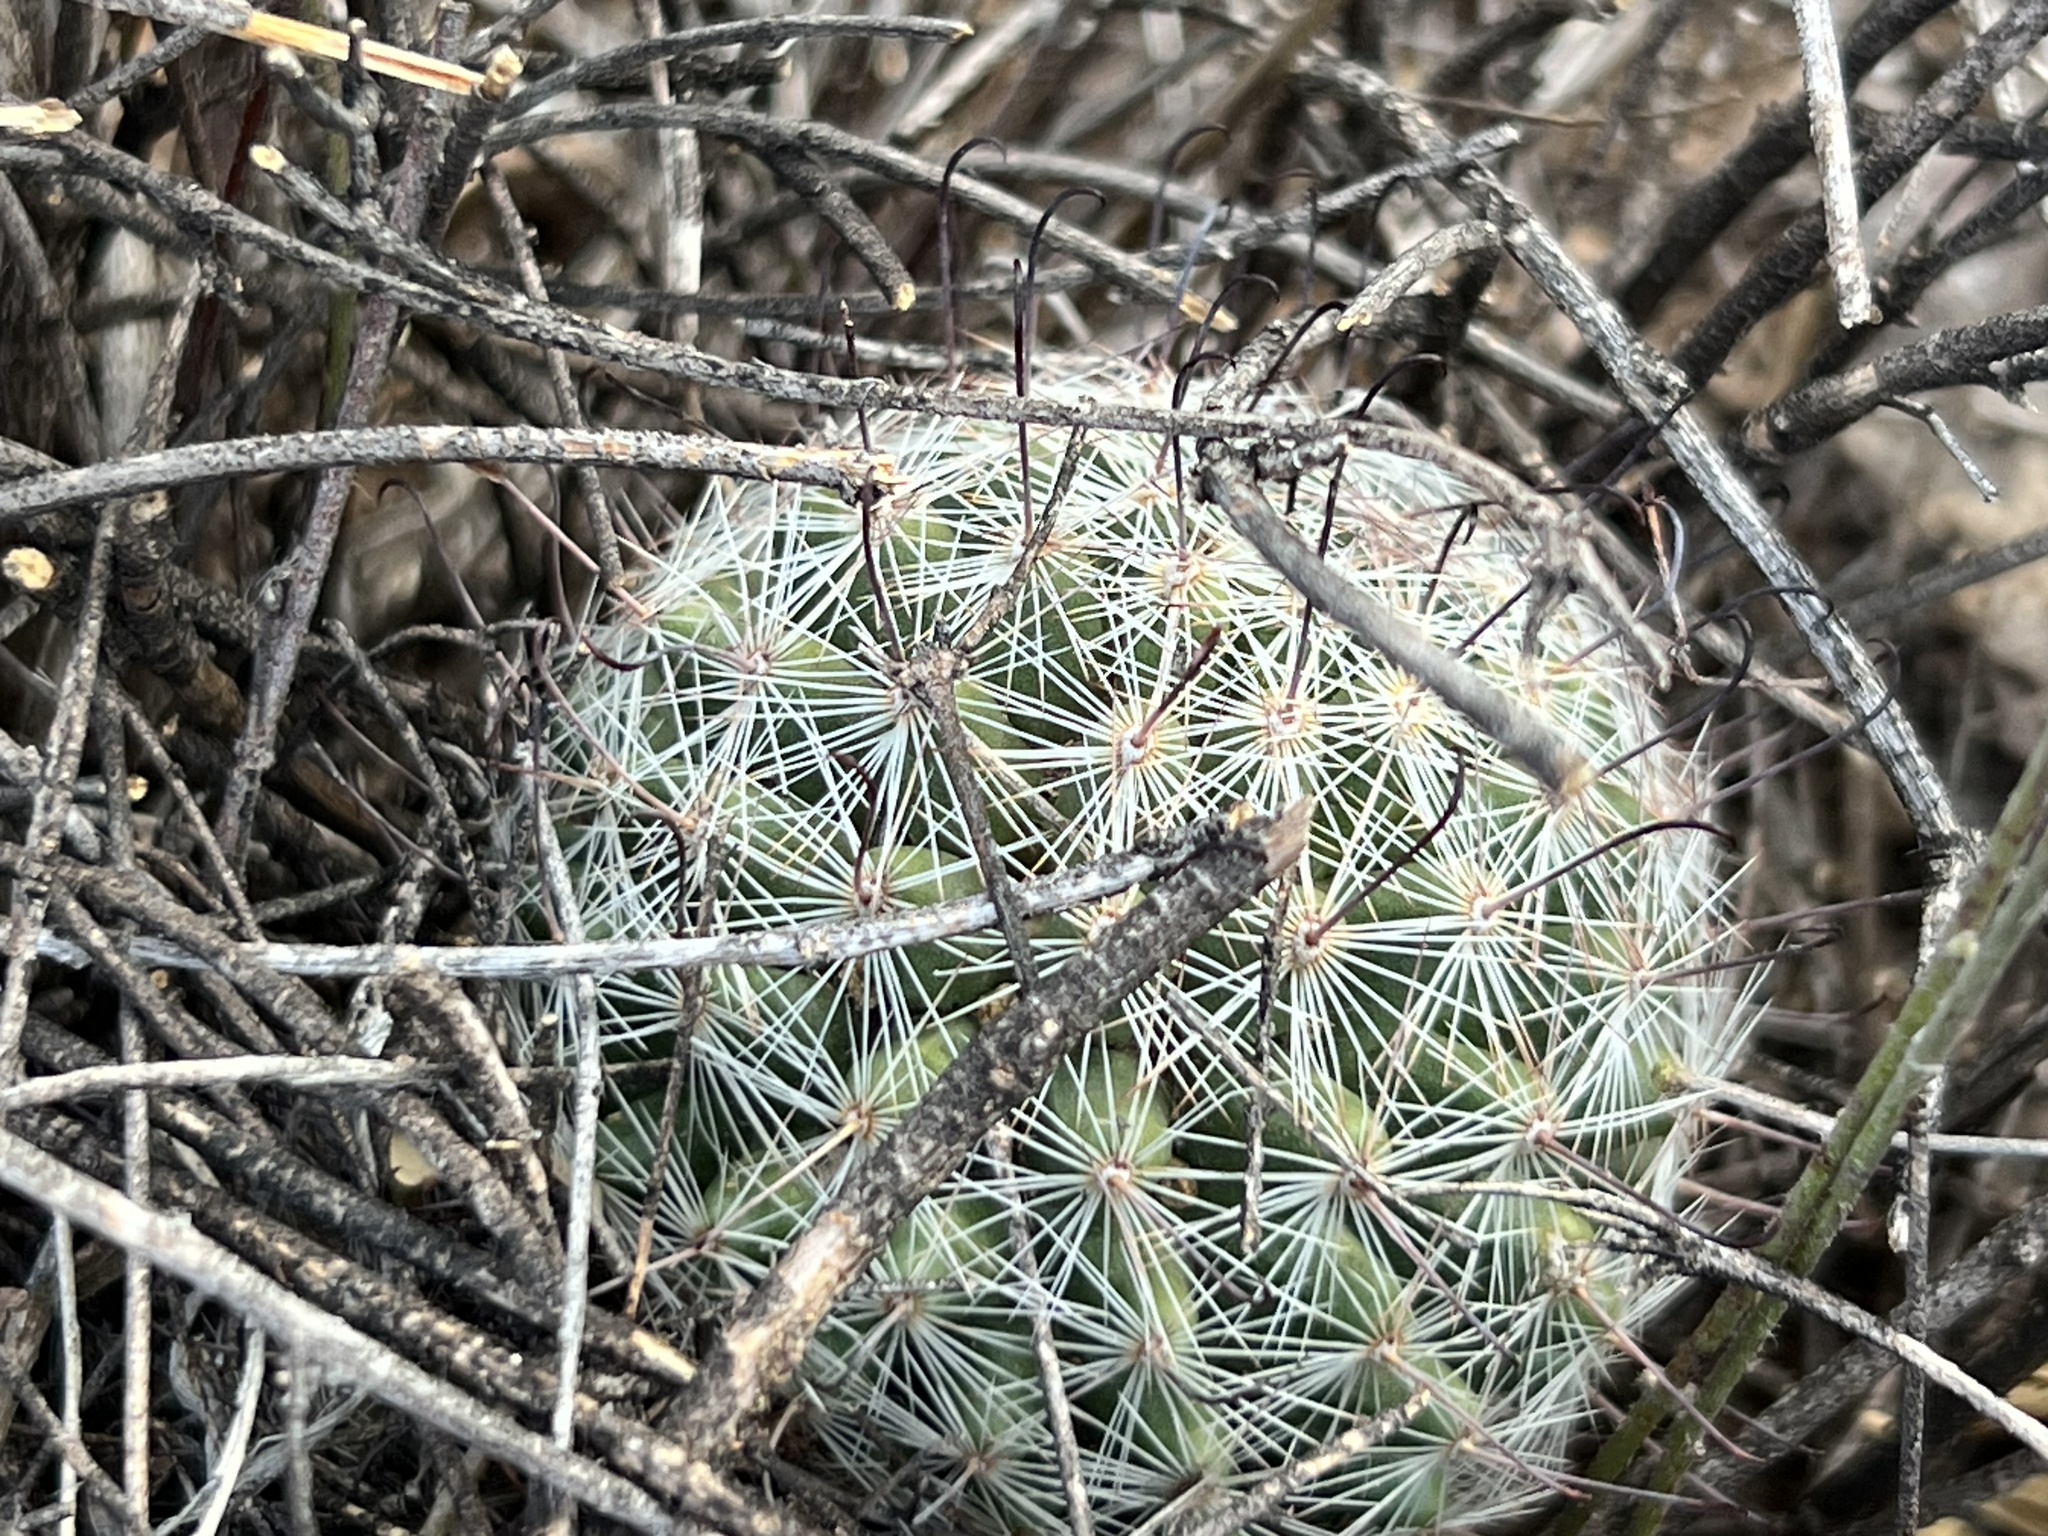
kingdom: Plantae
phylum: Tracheophyta
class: Magnoliopsida
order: Caryophyllales
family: Cactaceae
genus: Cochemiea
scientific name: Cochemiea grahamii
